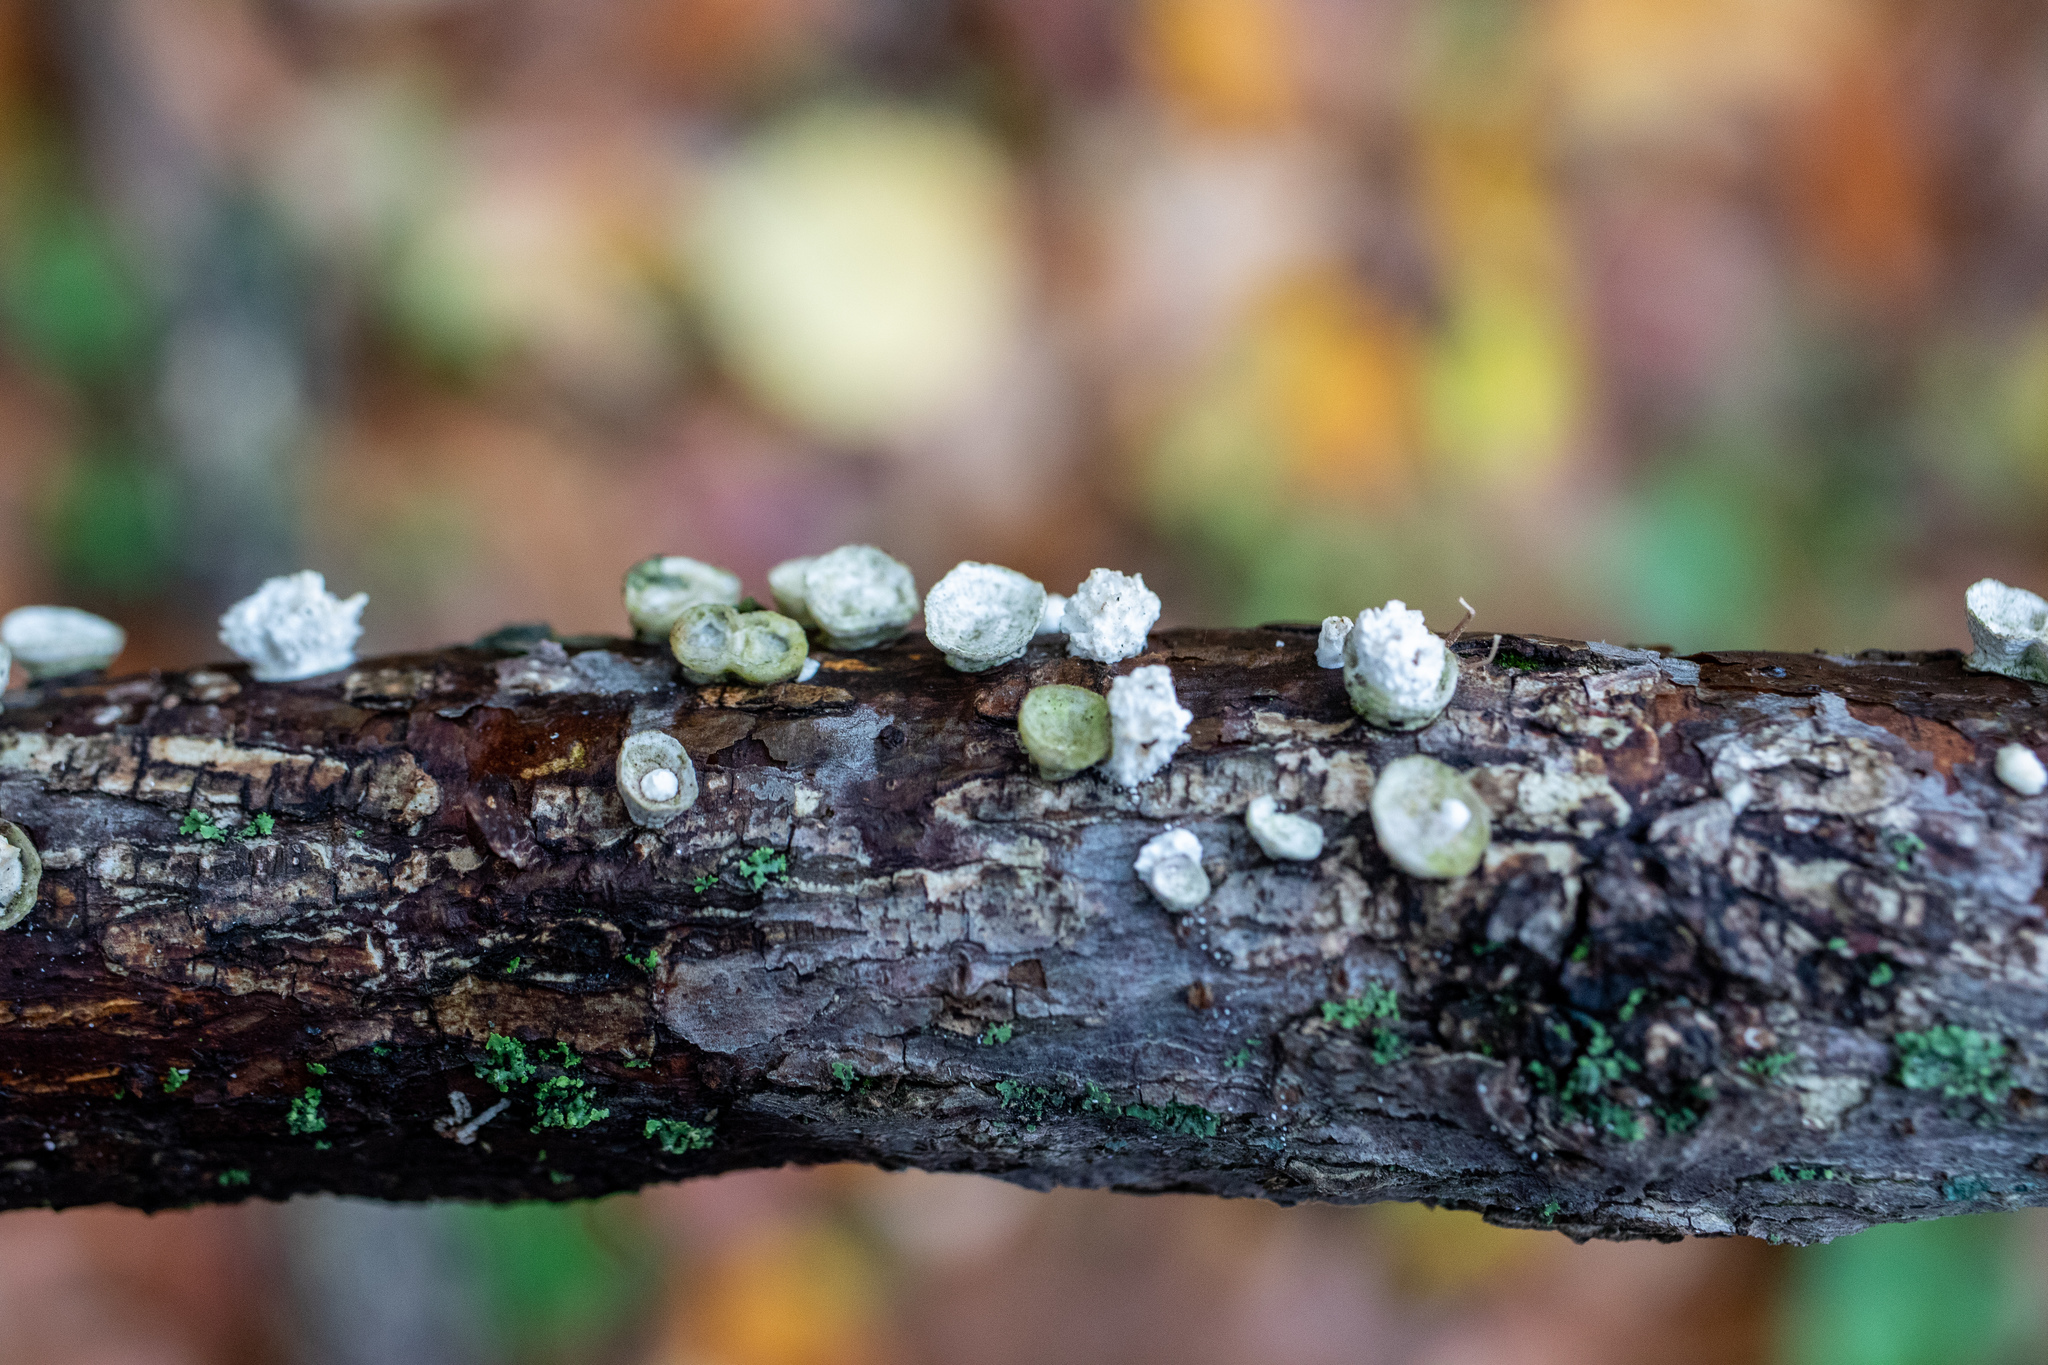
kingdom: Fungi
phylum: Basidiomycota
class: Agaricomycetes
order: Polyporales
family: Polyporaceae
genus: Poronidulus
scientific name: Poronidulus conchifer
